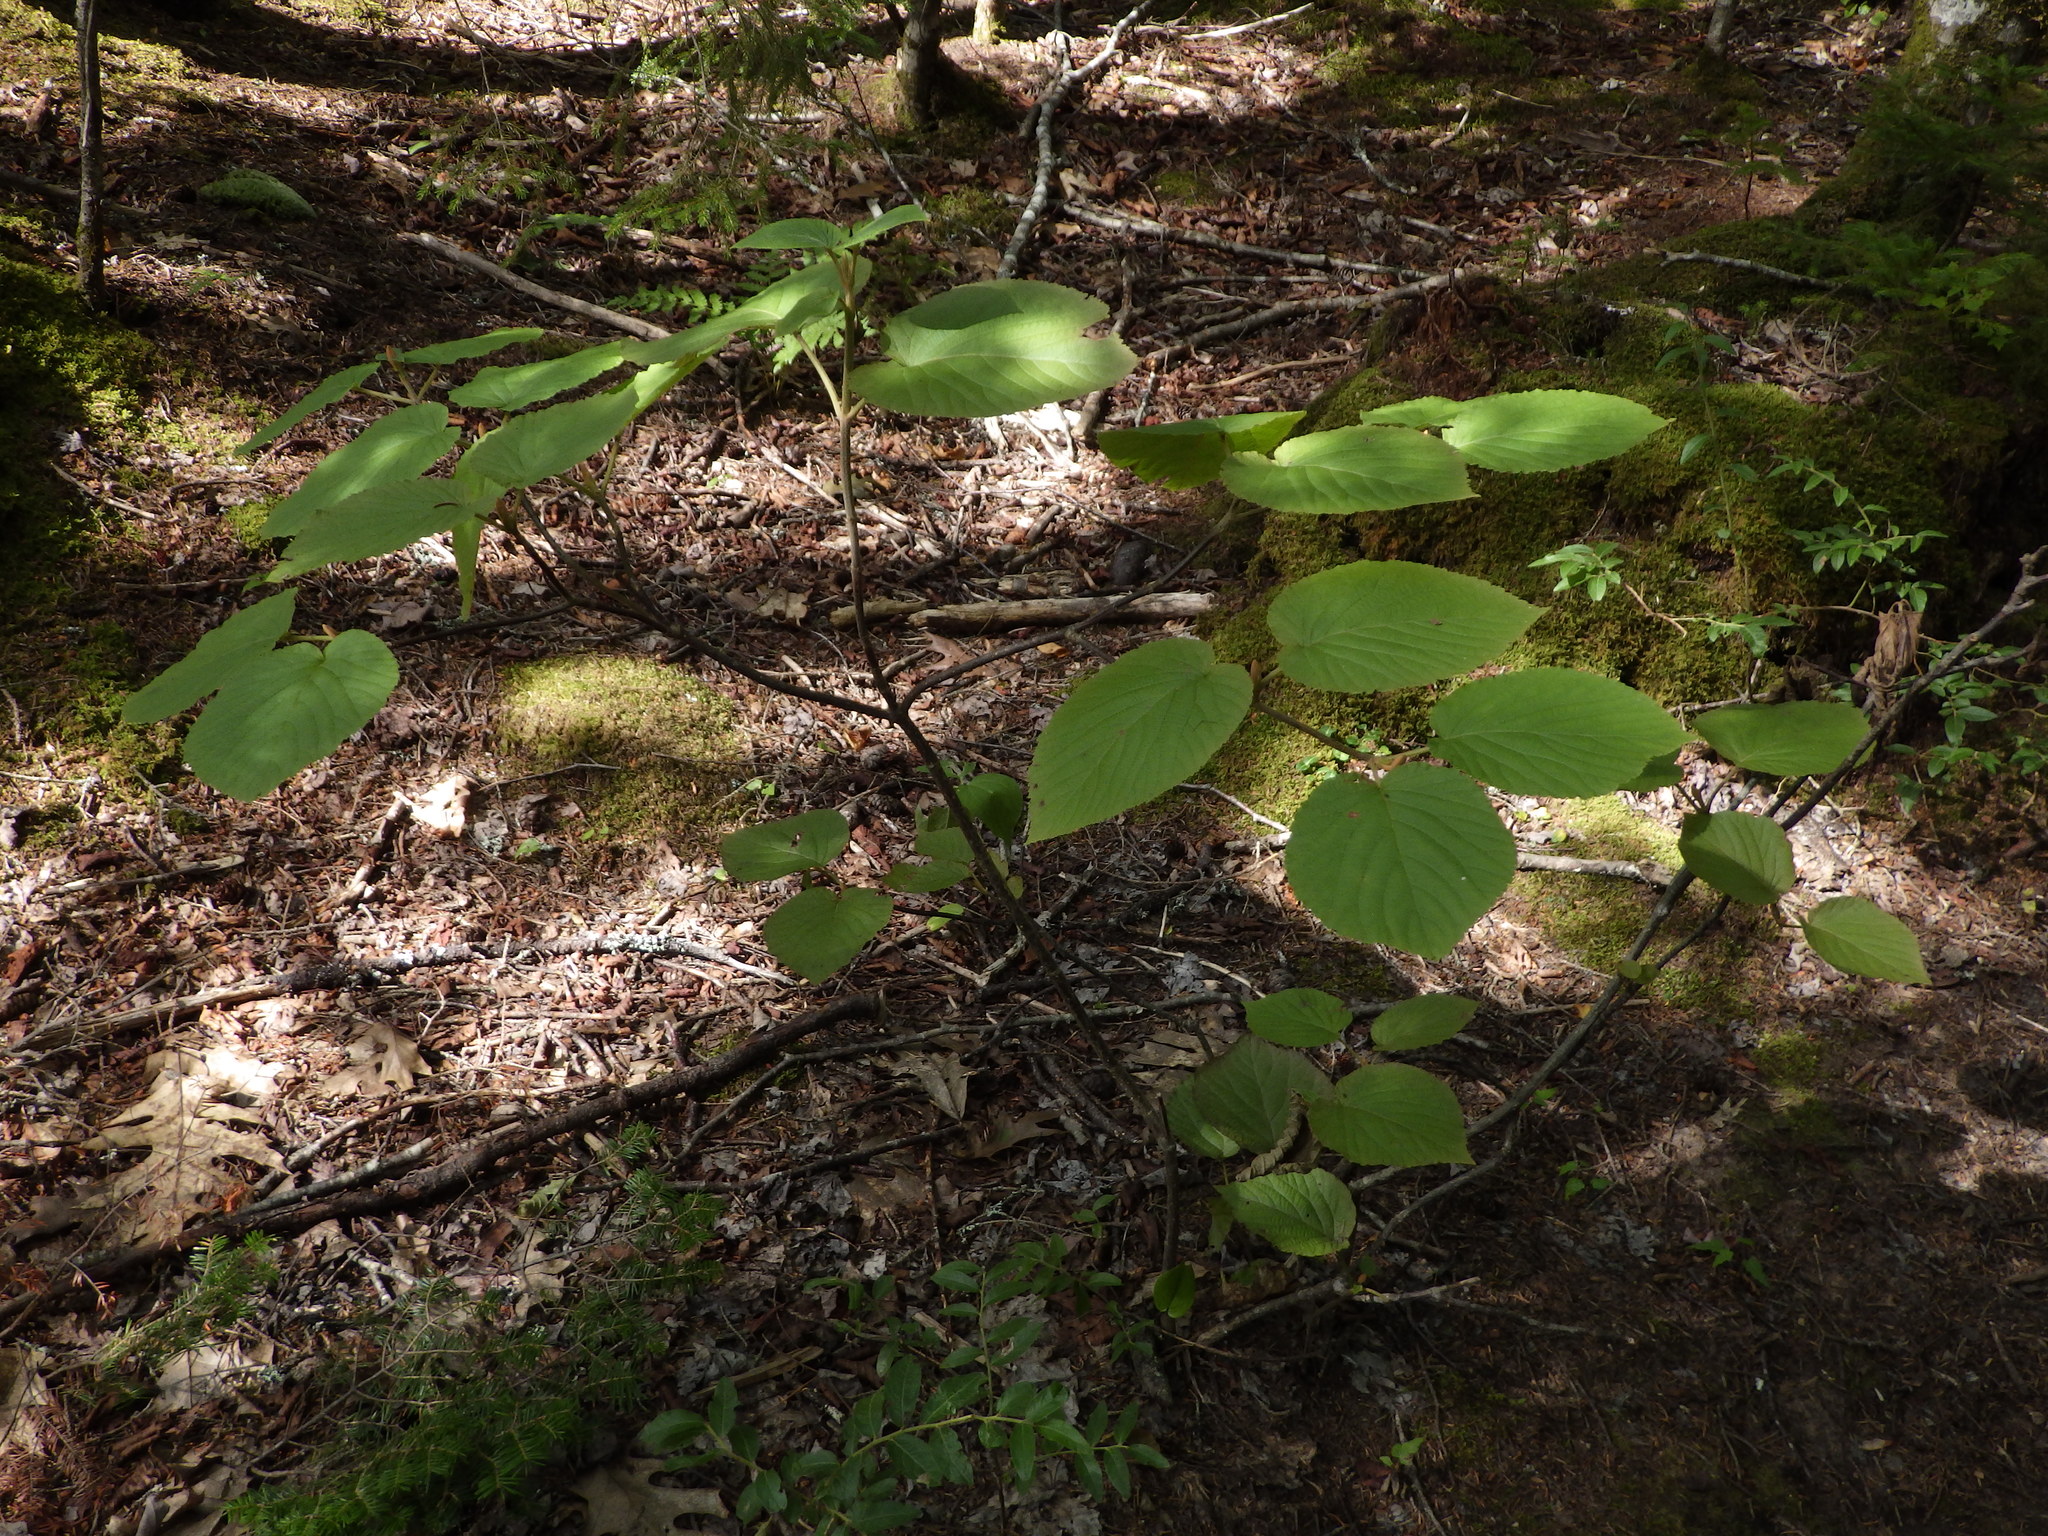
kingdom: Plantae
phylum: Tracheophyta
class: Magnoliopsida
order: Dipsacales
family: Viburnaceae
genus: Viburnum
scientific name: Viburnum lantanoides
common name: Hobblebush
